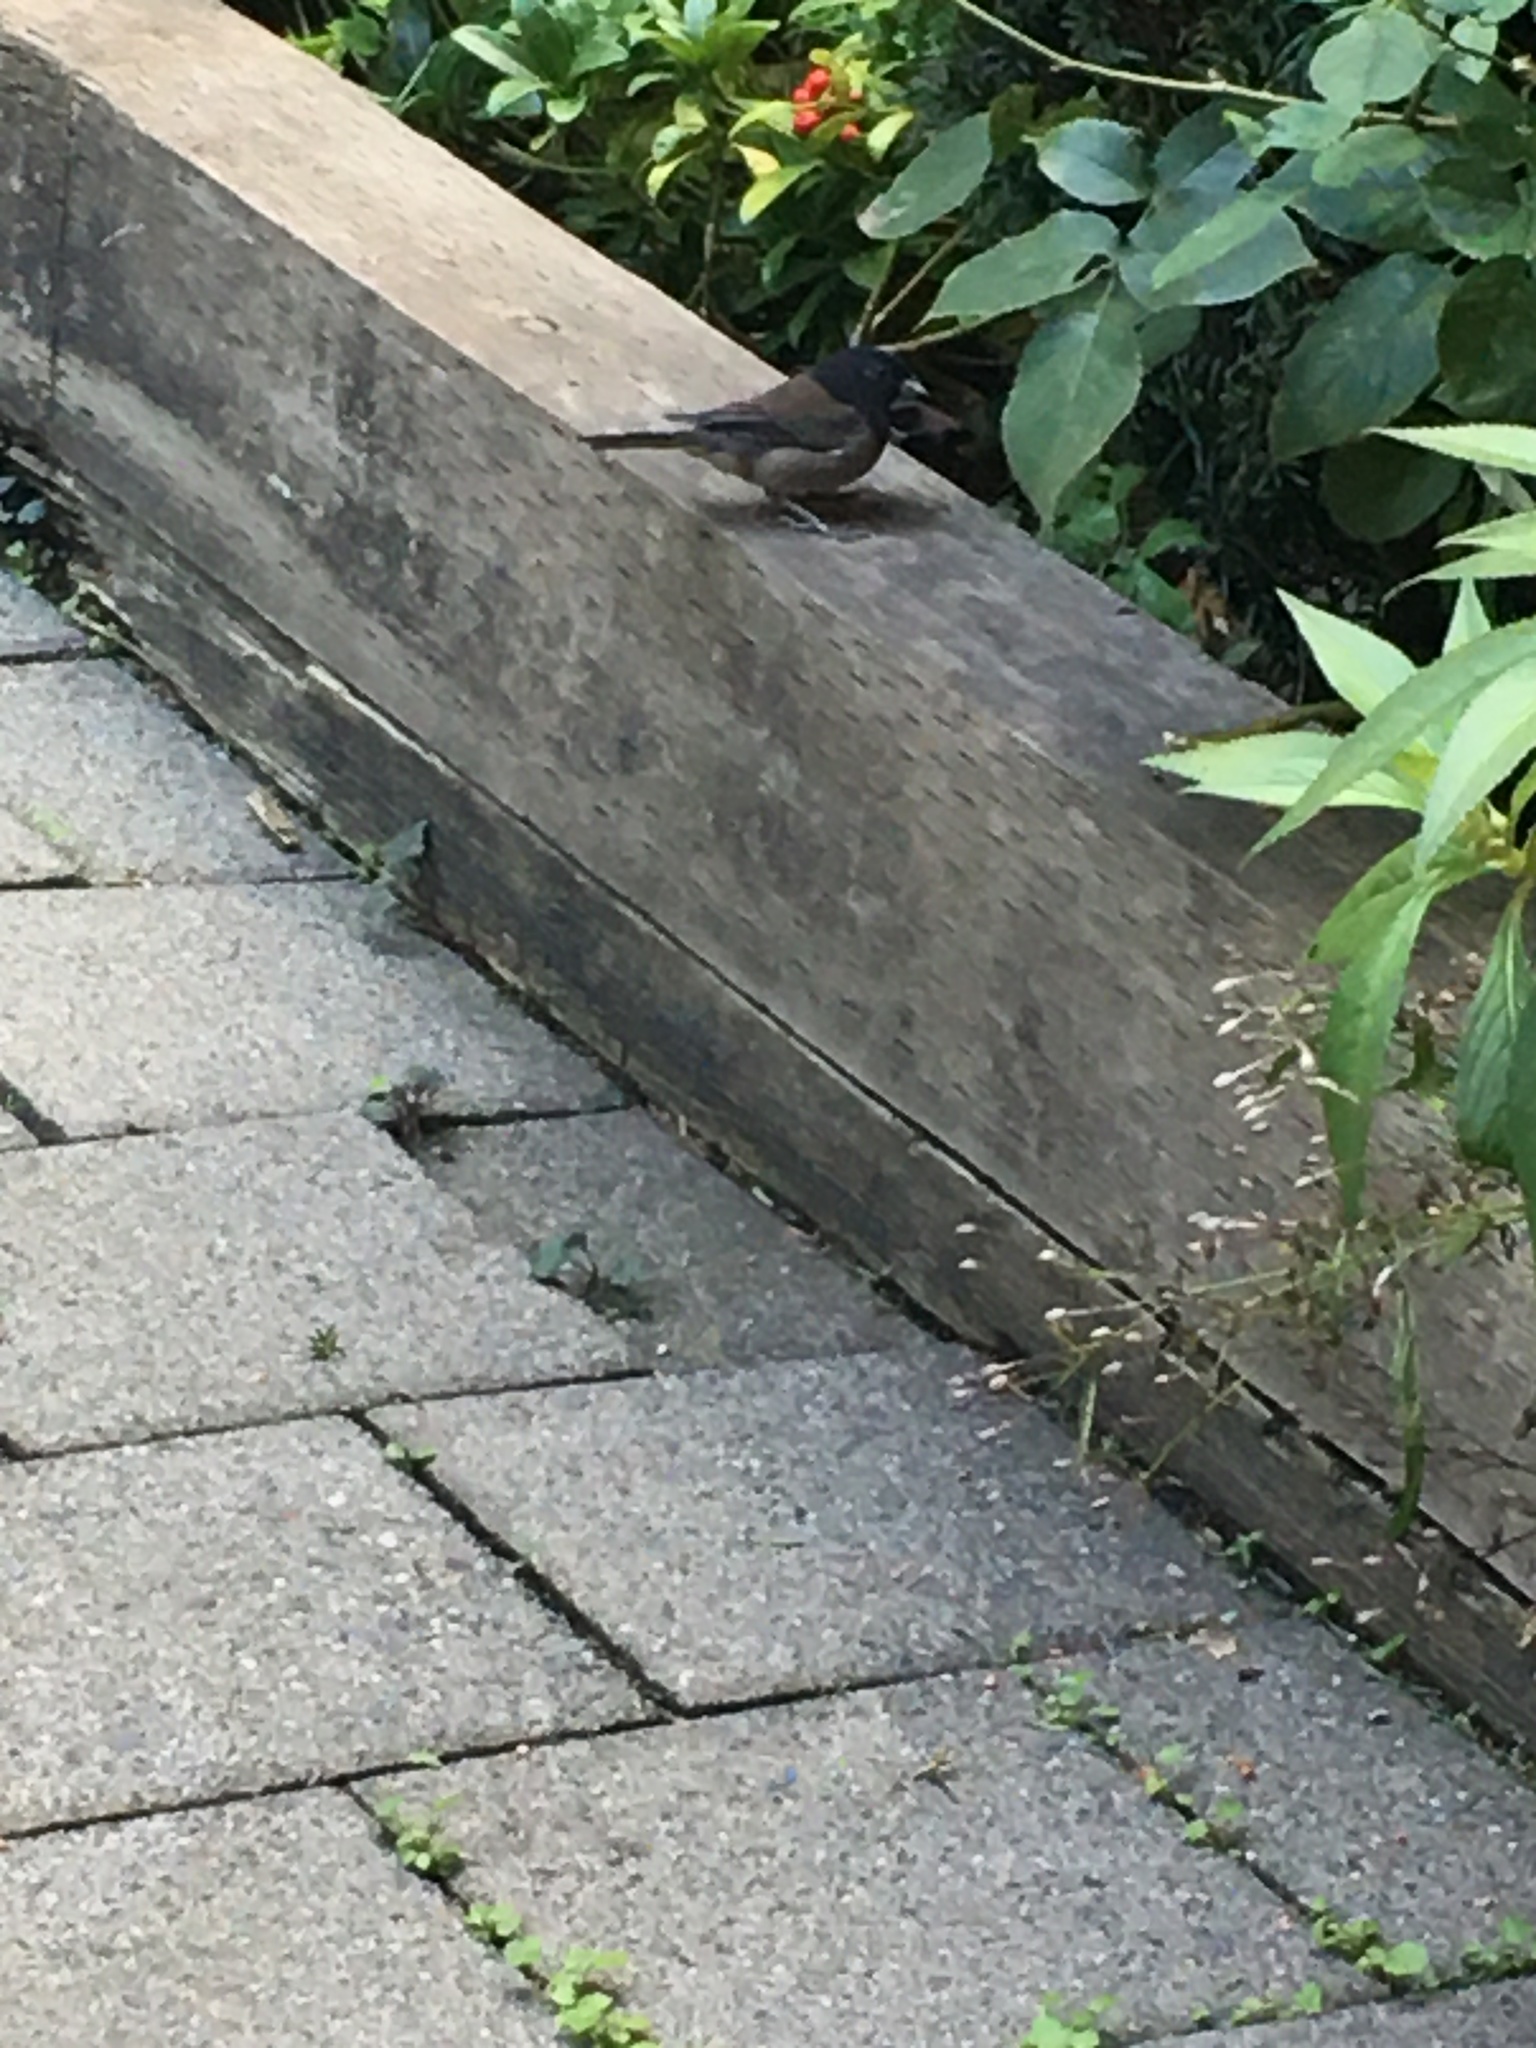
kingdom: Animalia
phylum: Chordata
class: Aves
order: Passeriformes
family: Passerellidae
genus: Junco
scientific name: Junco hyemalis
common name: Dark-eyed junco
